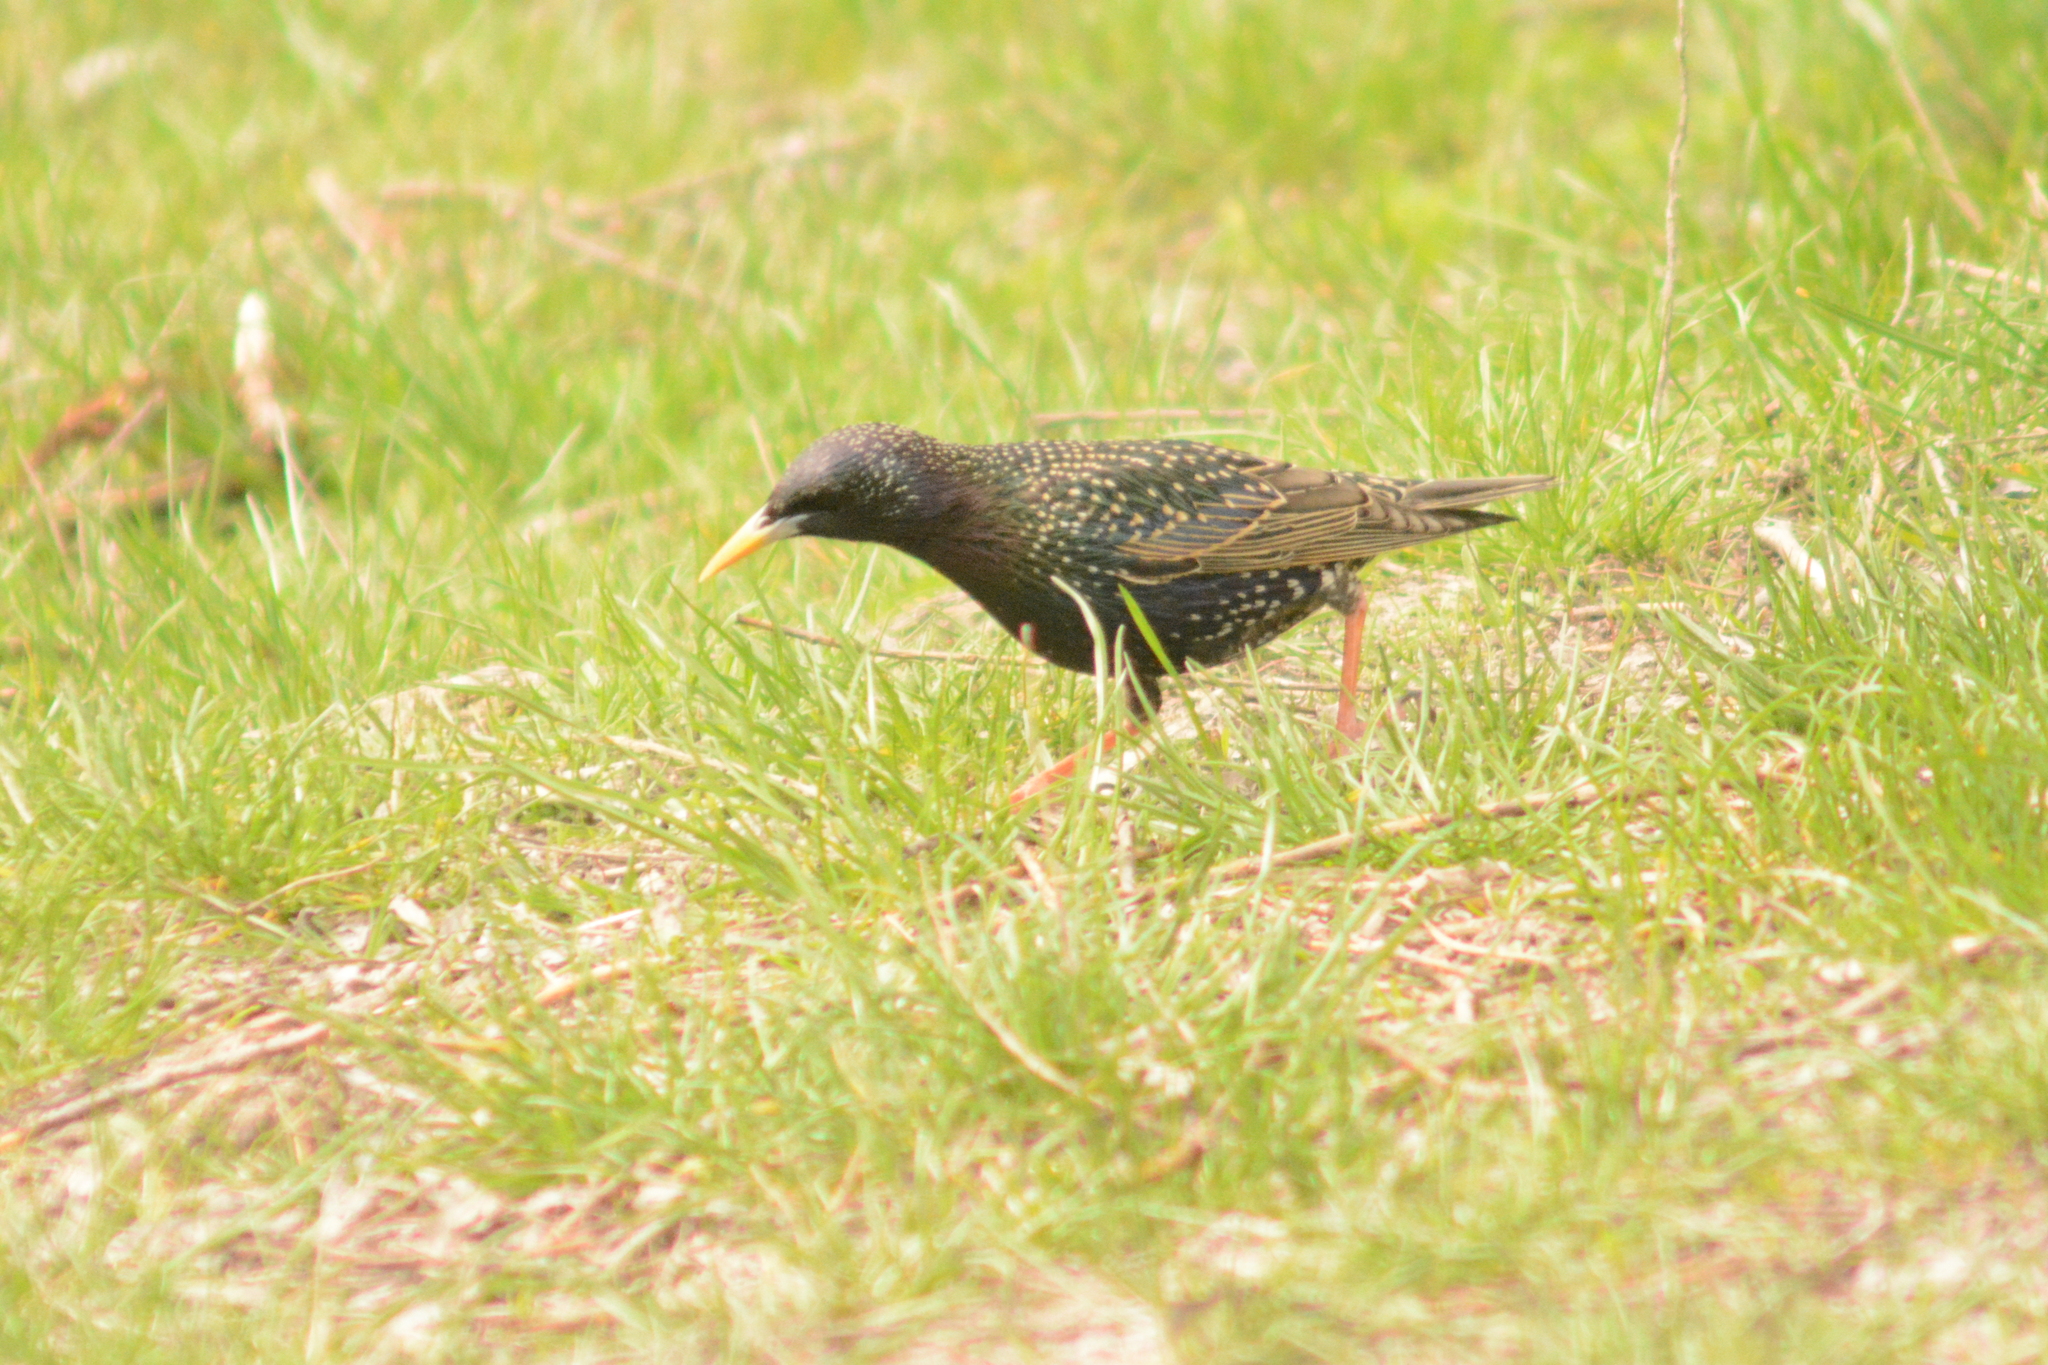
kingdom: Animalia
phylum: Chordata
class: Aves
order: Passeriformes
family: Sturnidae
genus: Sturnus
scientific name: Sturnus vulgaris
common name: Common starling
